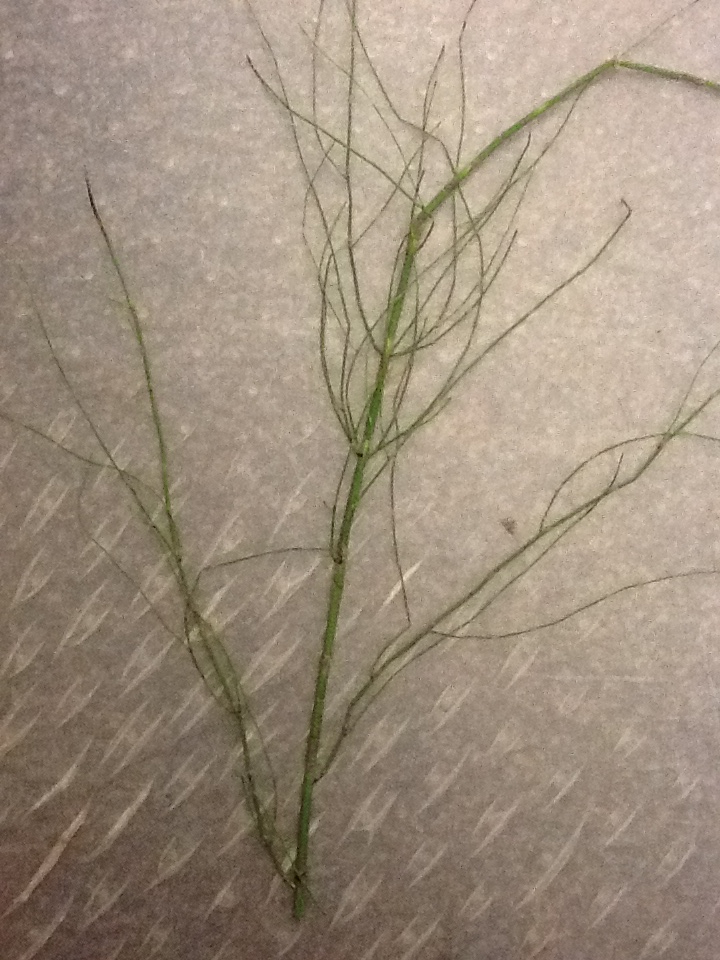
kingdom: Plantae
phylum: Tracheophyta
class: Polypodiopsida
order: Equisetales
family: Equisetaceae
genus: Equisetum
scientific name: Equisetum fluviatile
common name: Water horsetail
